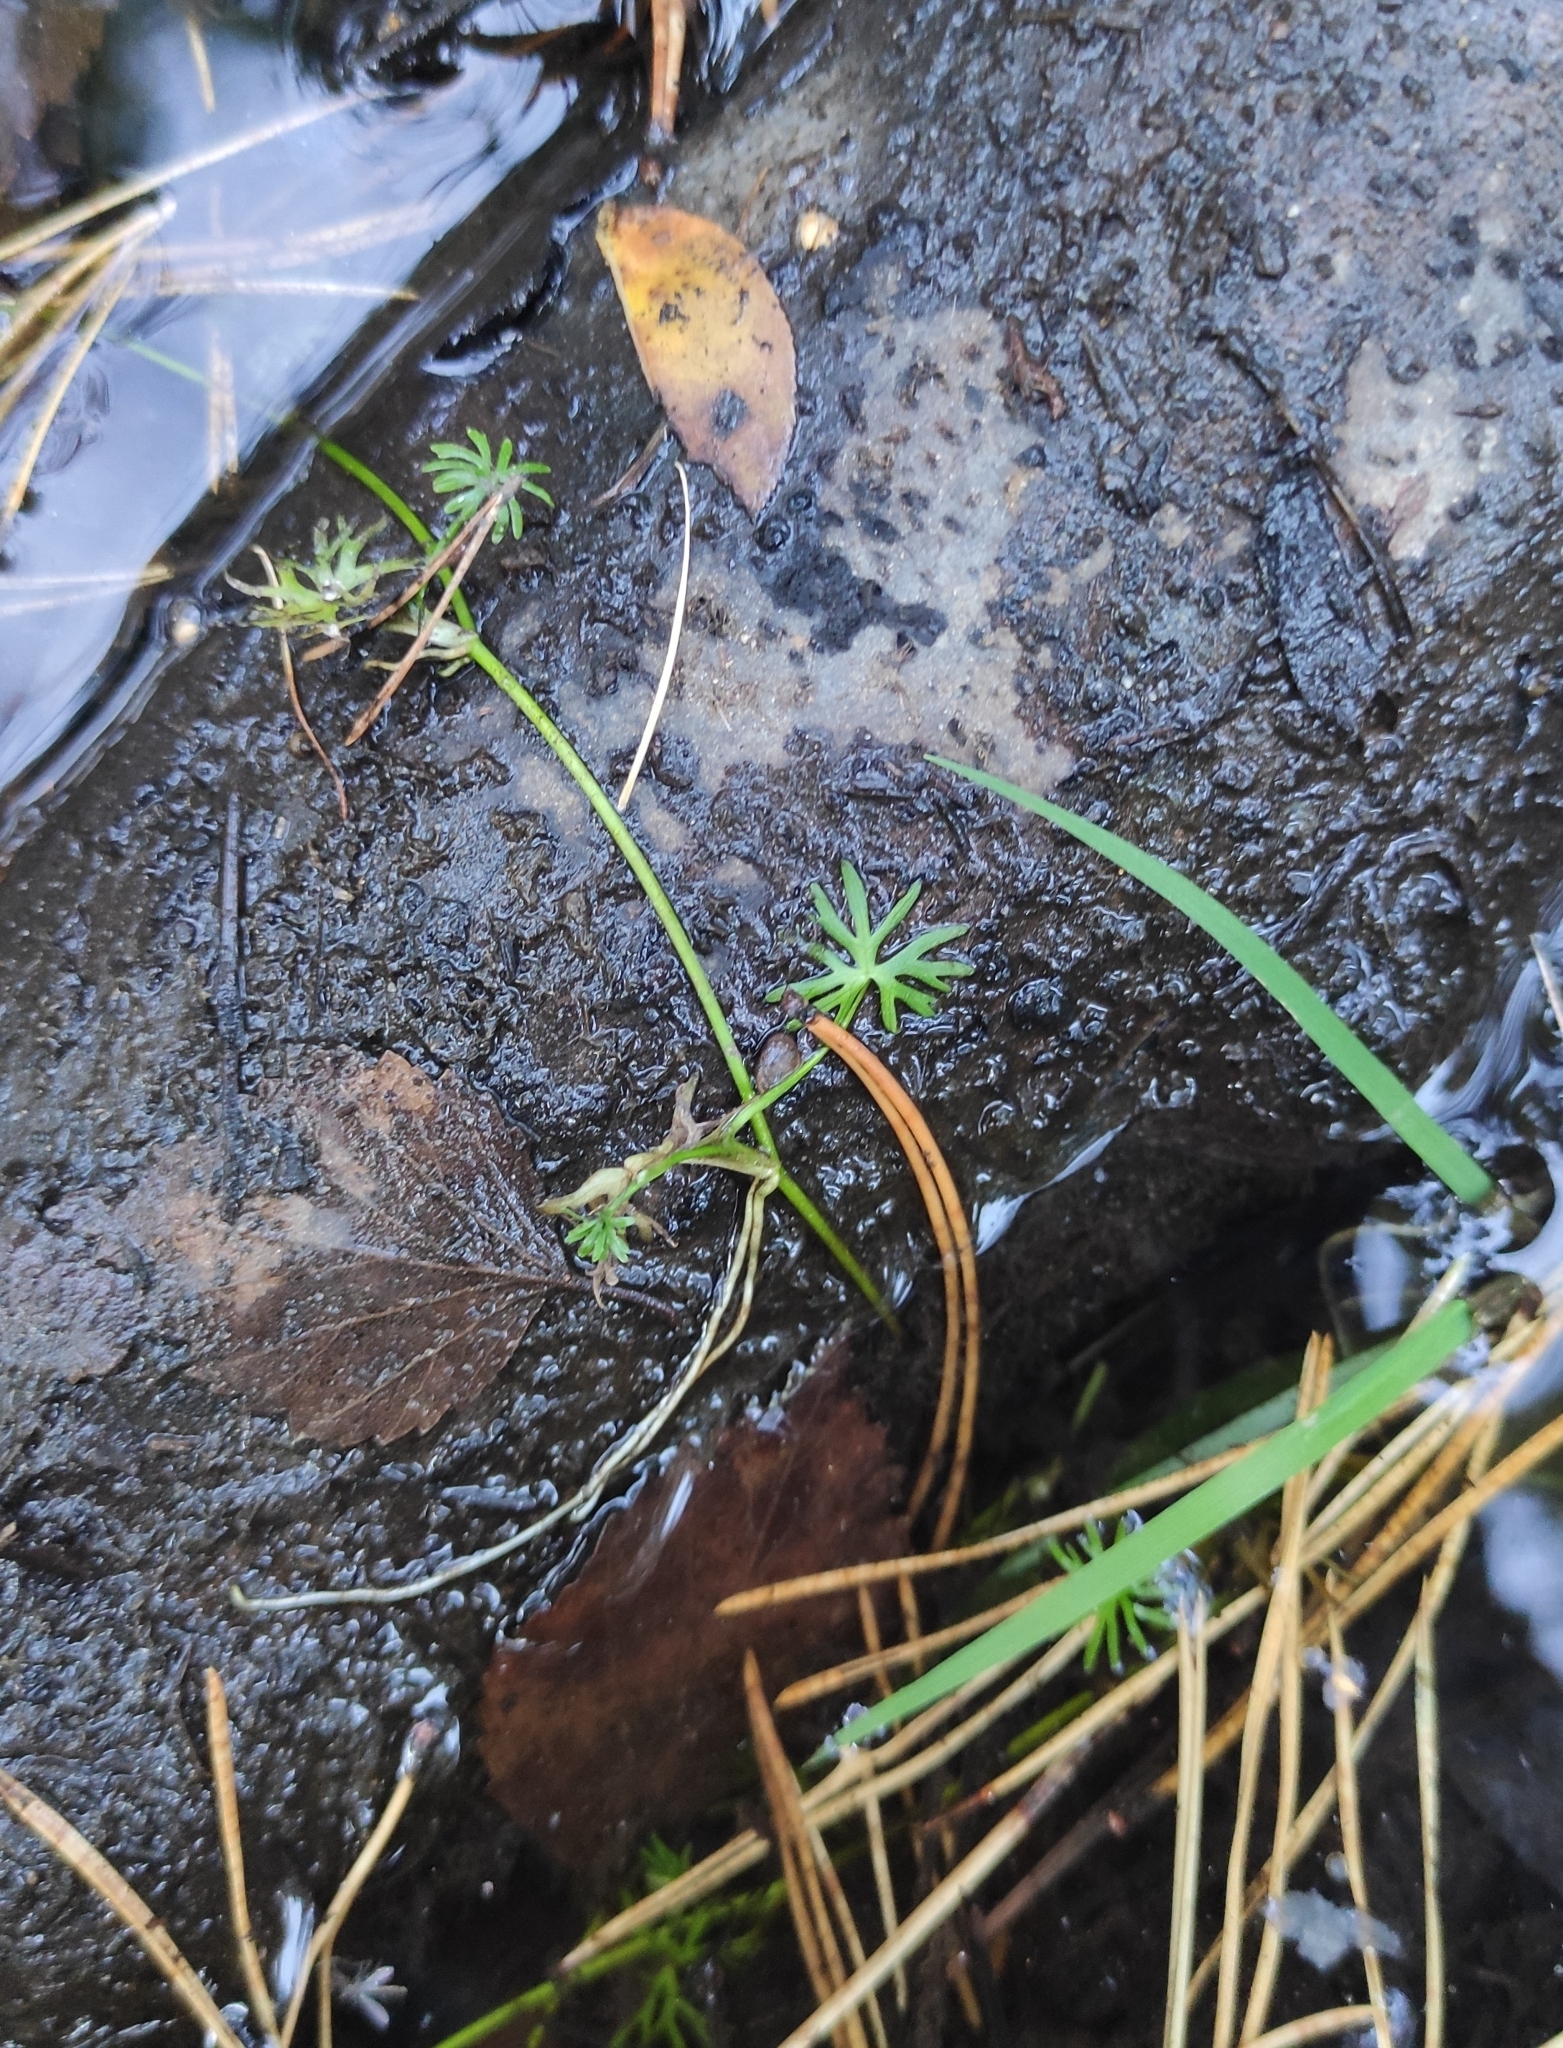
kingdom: Plantae
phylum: Tracheophyta
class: Magnoliopsida
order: Ranunculales
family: Ranunculaceae
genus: Ranunculus
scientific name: Ranunculus gmelinii
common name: Gmelin's buttercup
